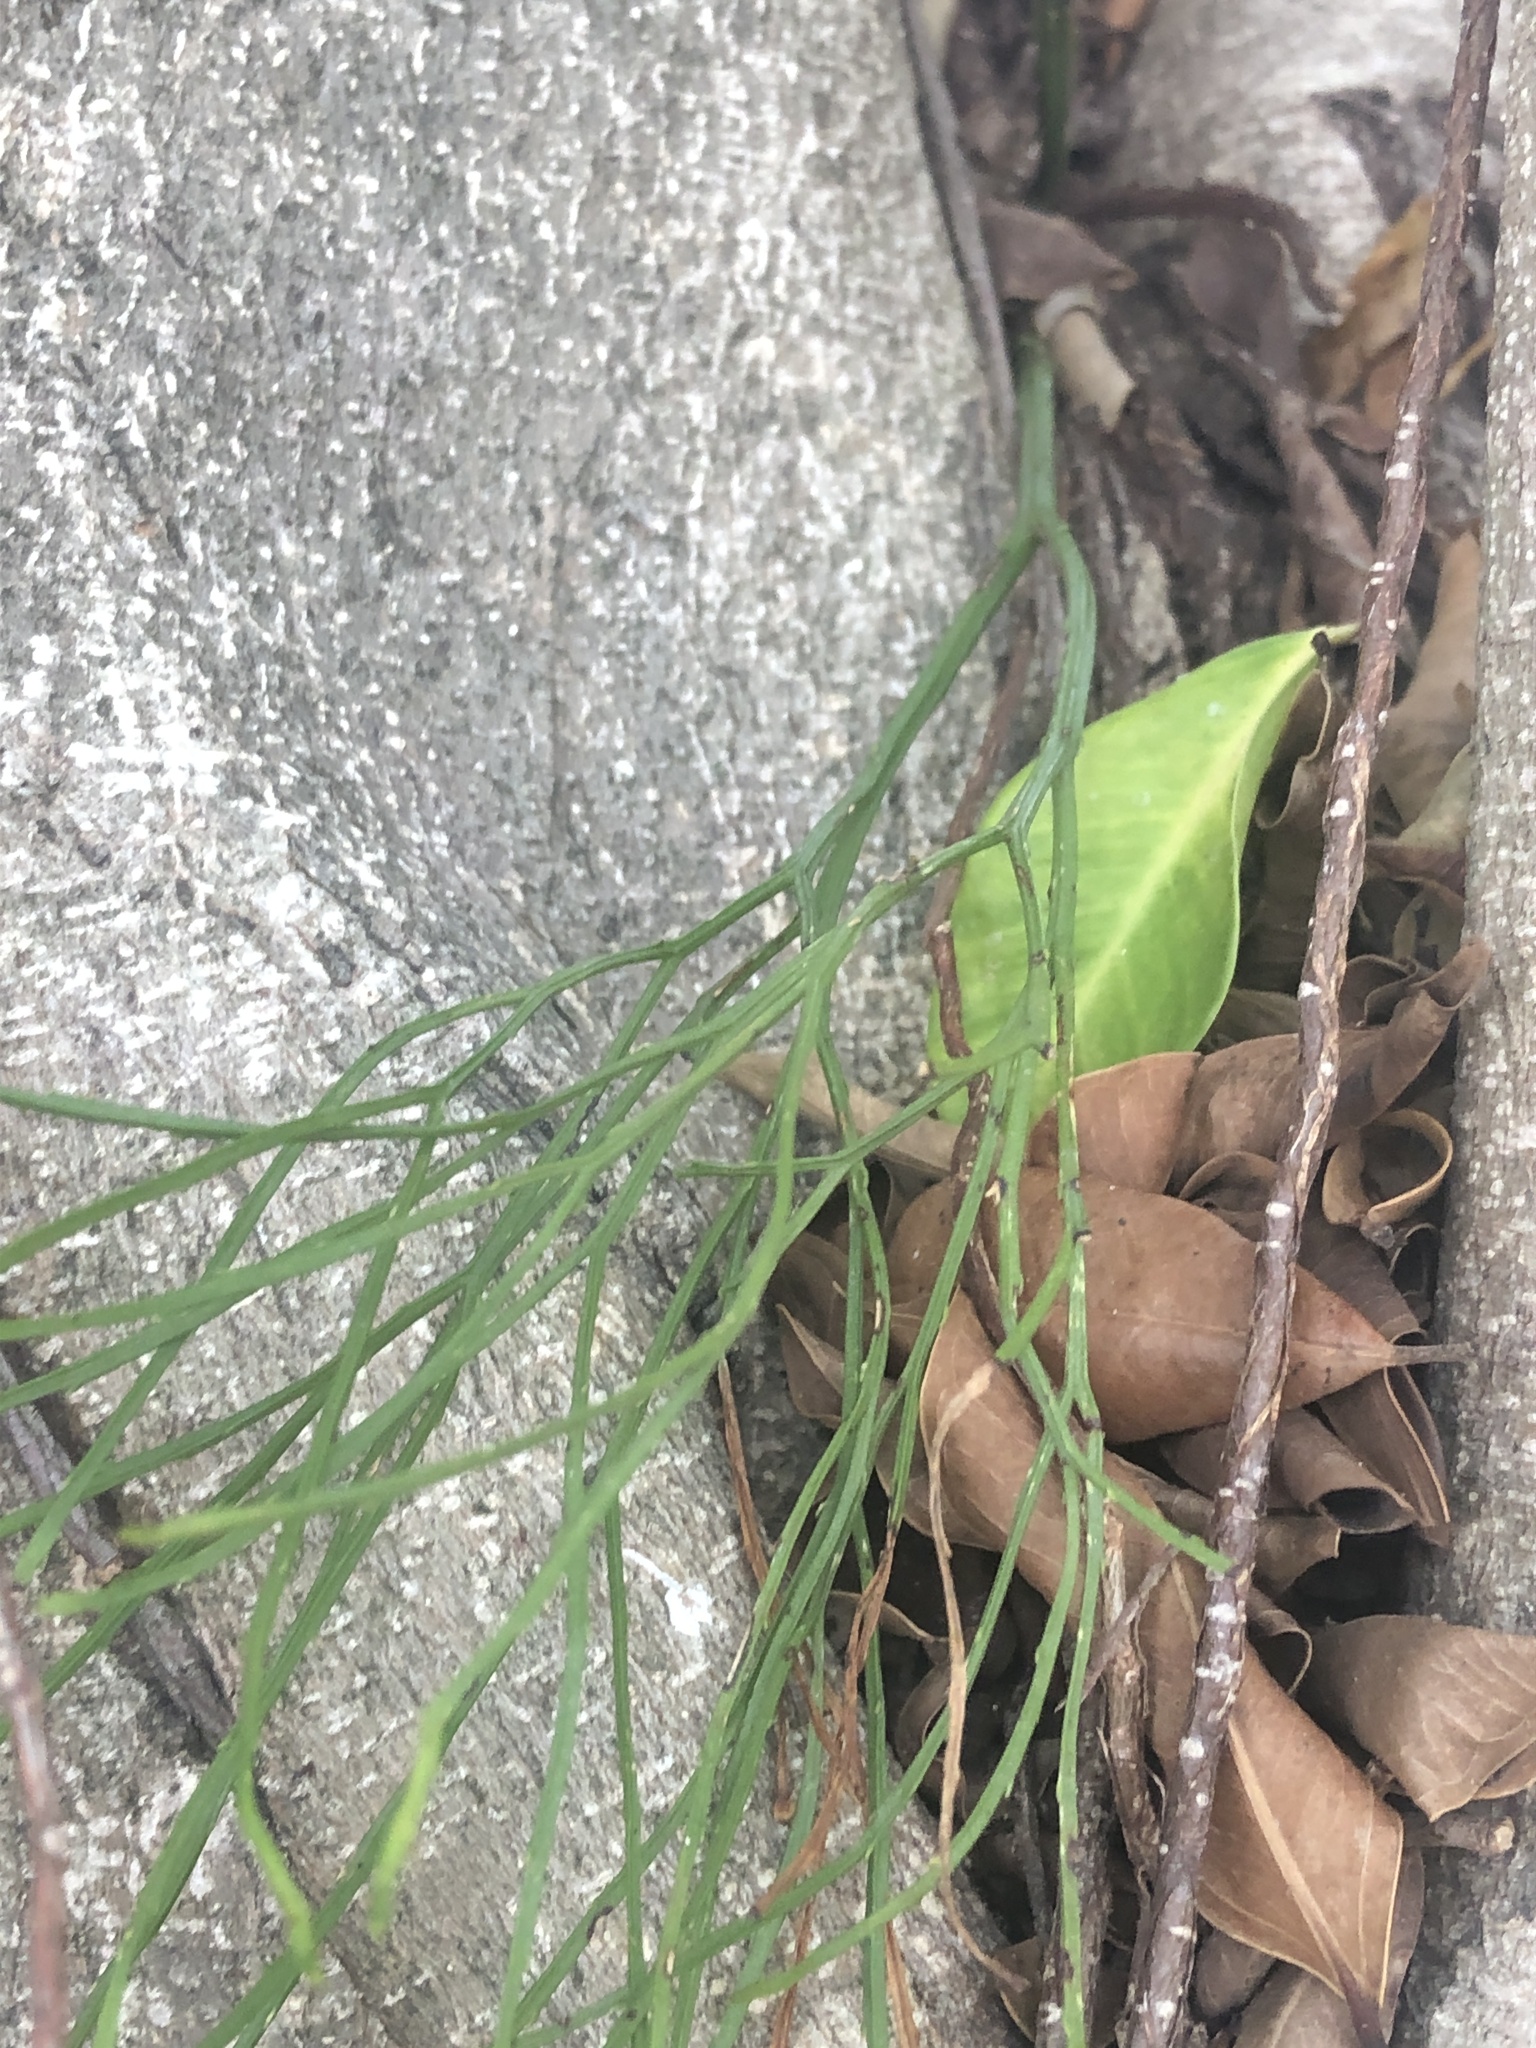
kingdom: Plantae
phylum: Tracheophyta
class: Polypodiopsida
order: Psilotales
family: Psilotaceae
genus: Psilotum
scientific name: Psilotum nudum
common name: Skeleton fork fern
